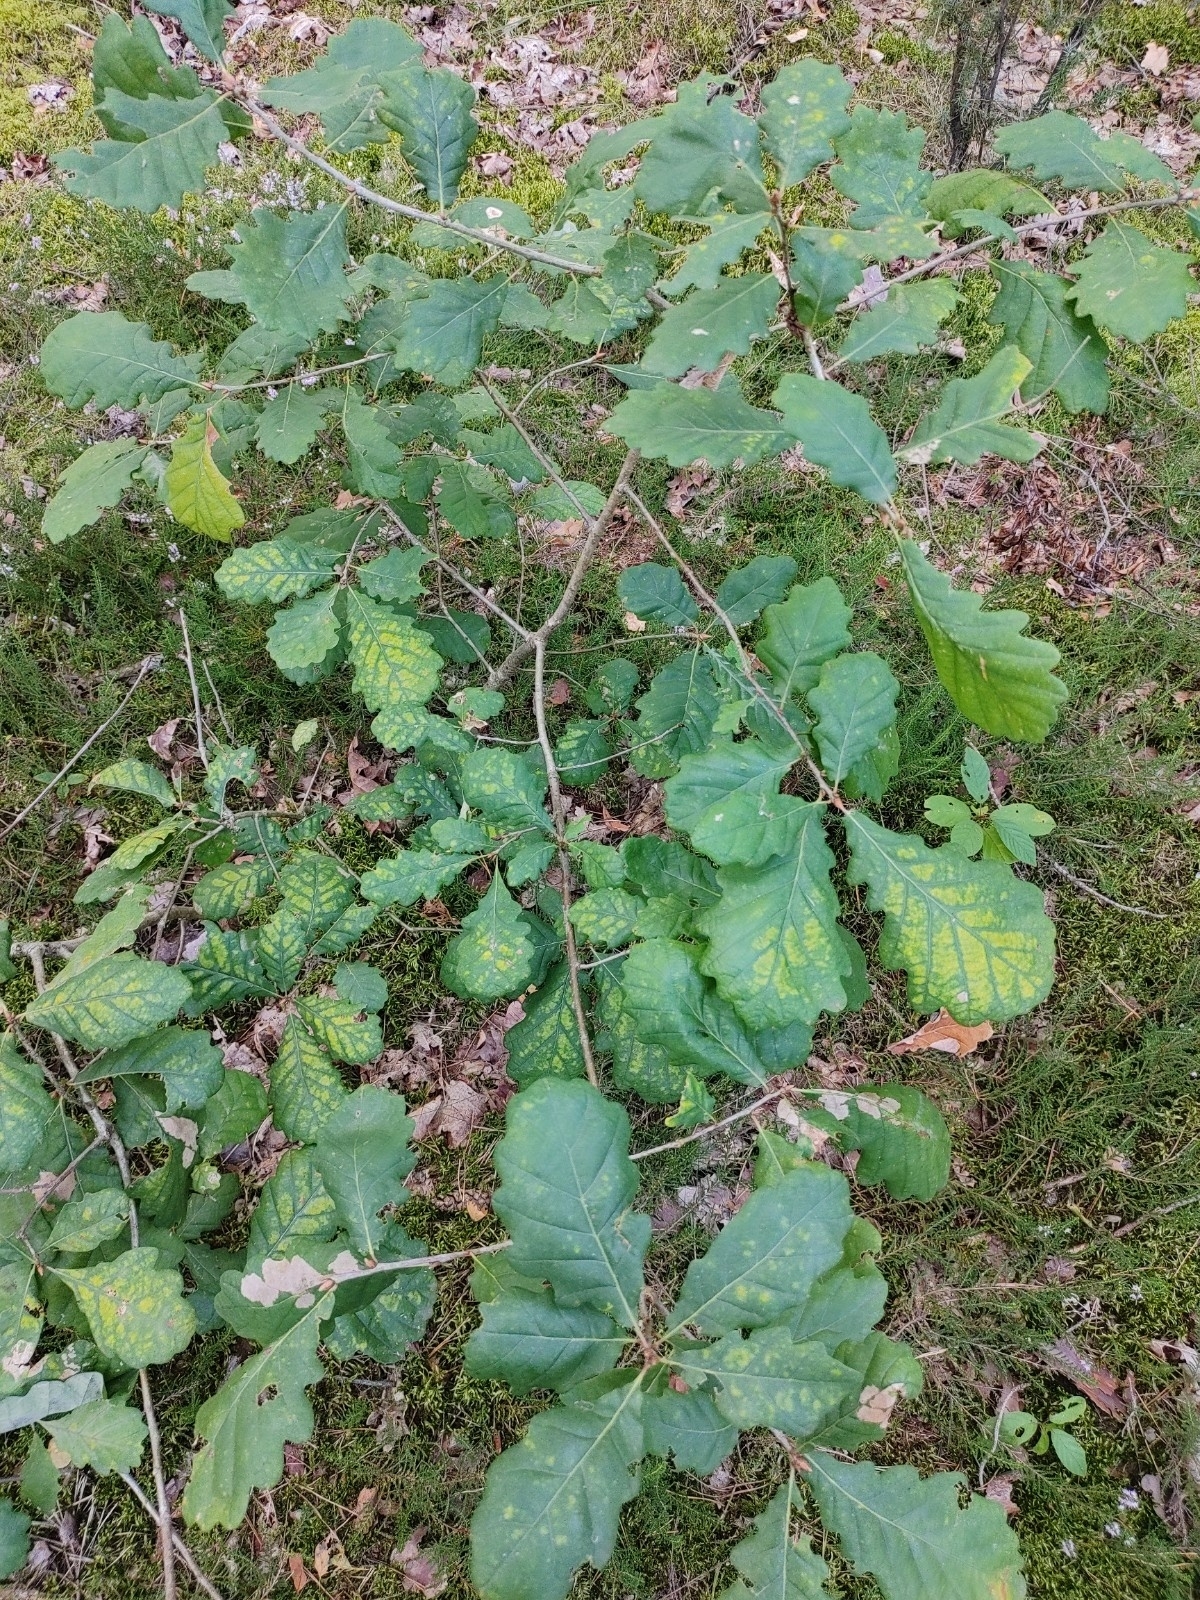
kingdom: Plantae
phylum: Tracheophyta
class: Magnoliopsida
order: Fagales
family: Fagaceae
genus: Quercus
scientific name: Quercus petraea
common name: Sessile oak
